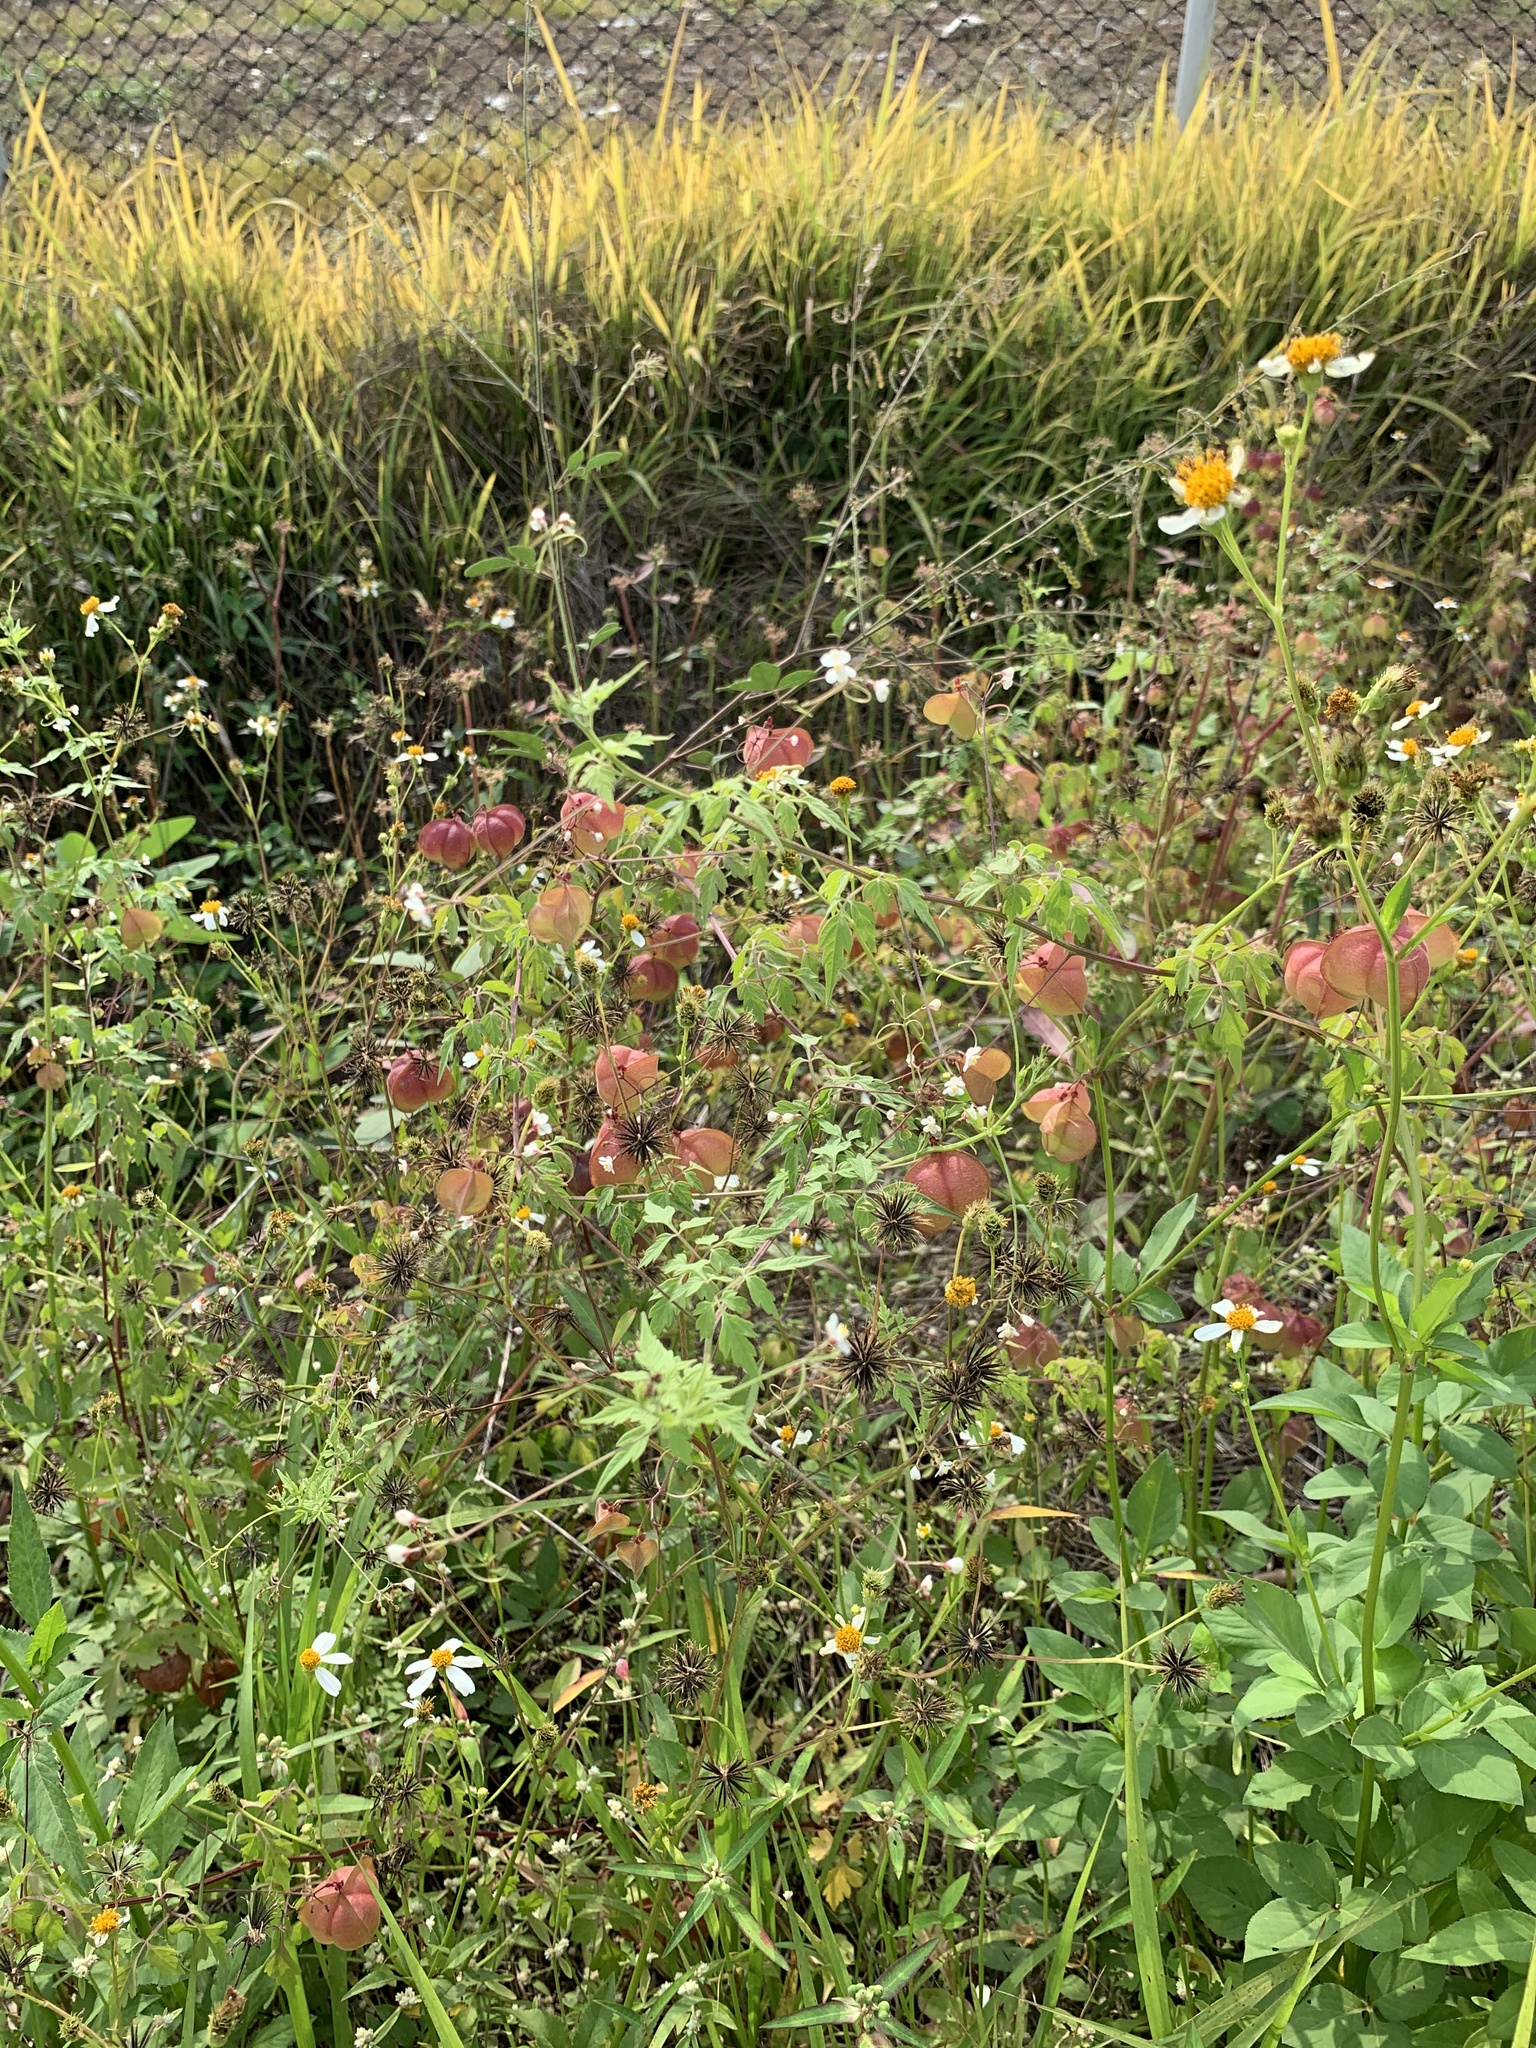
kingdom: Plantae
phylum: Tracheophyta
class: Magnoliopsida
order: Sapindales
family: Sapindaceae
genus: Cardiospermum
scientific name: Cardiospermum halicacabum
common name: Balloon vine
